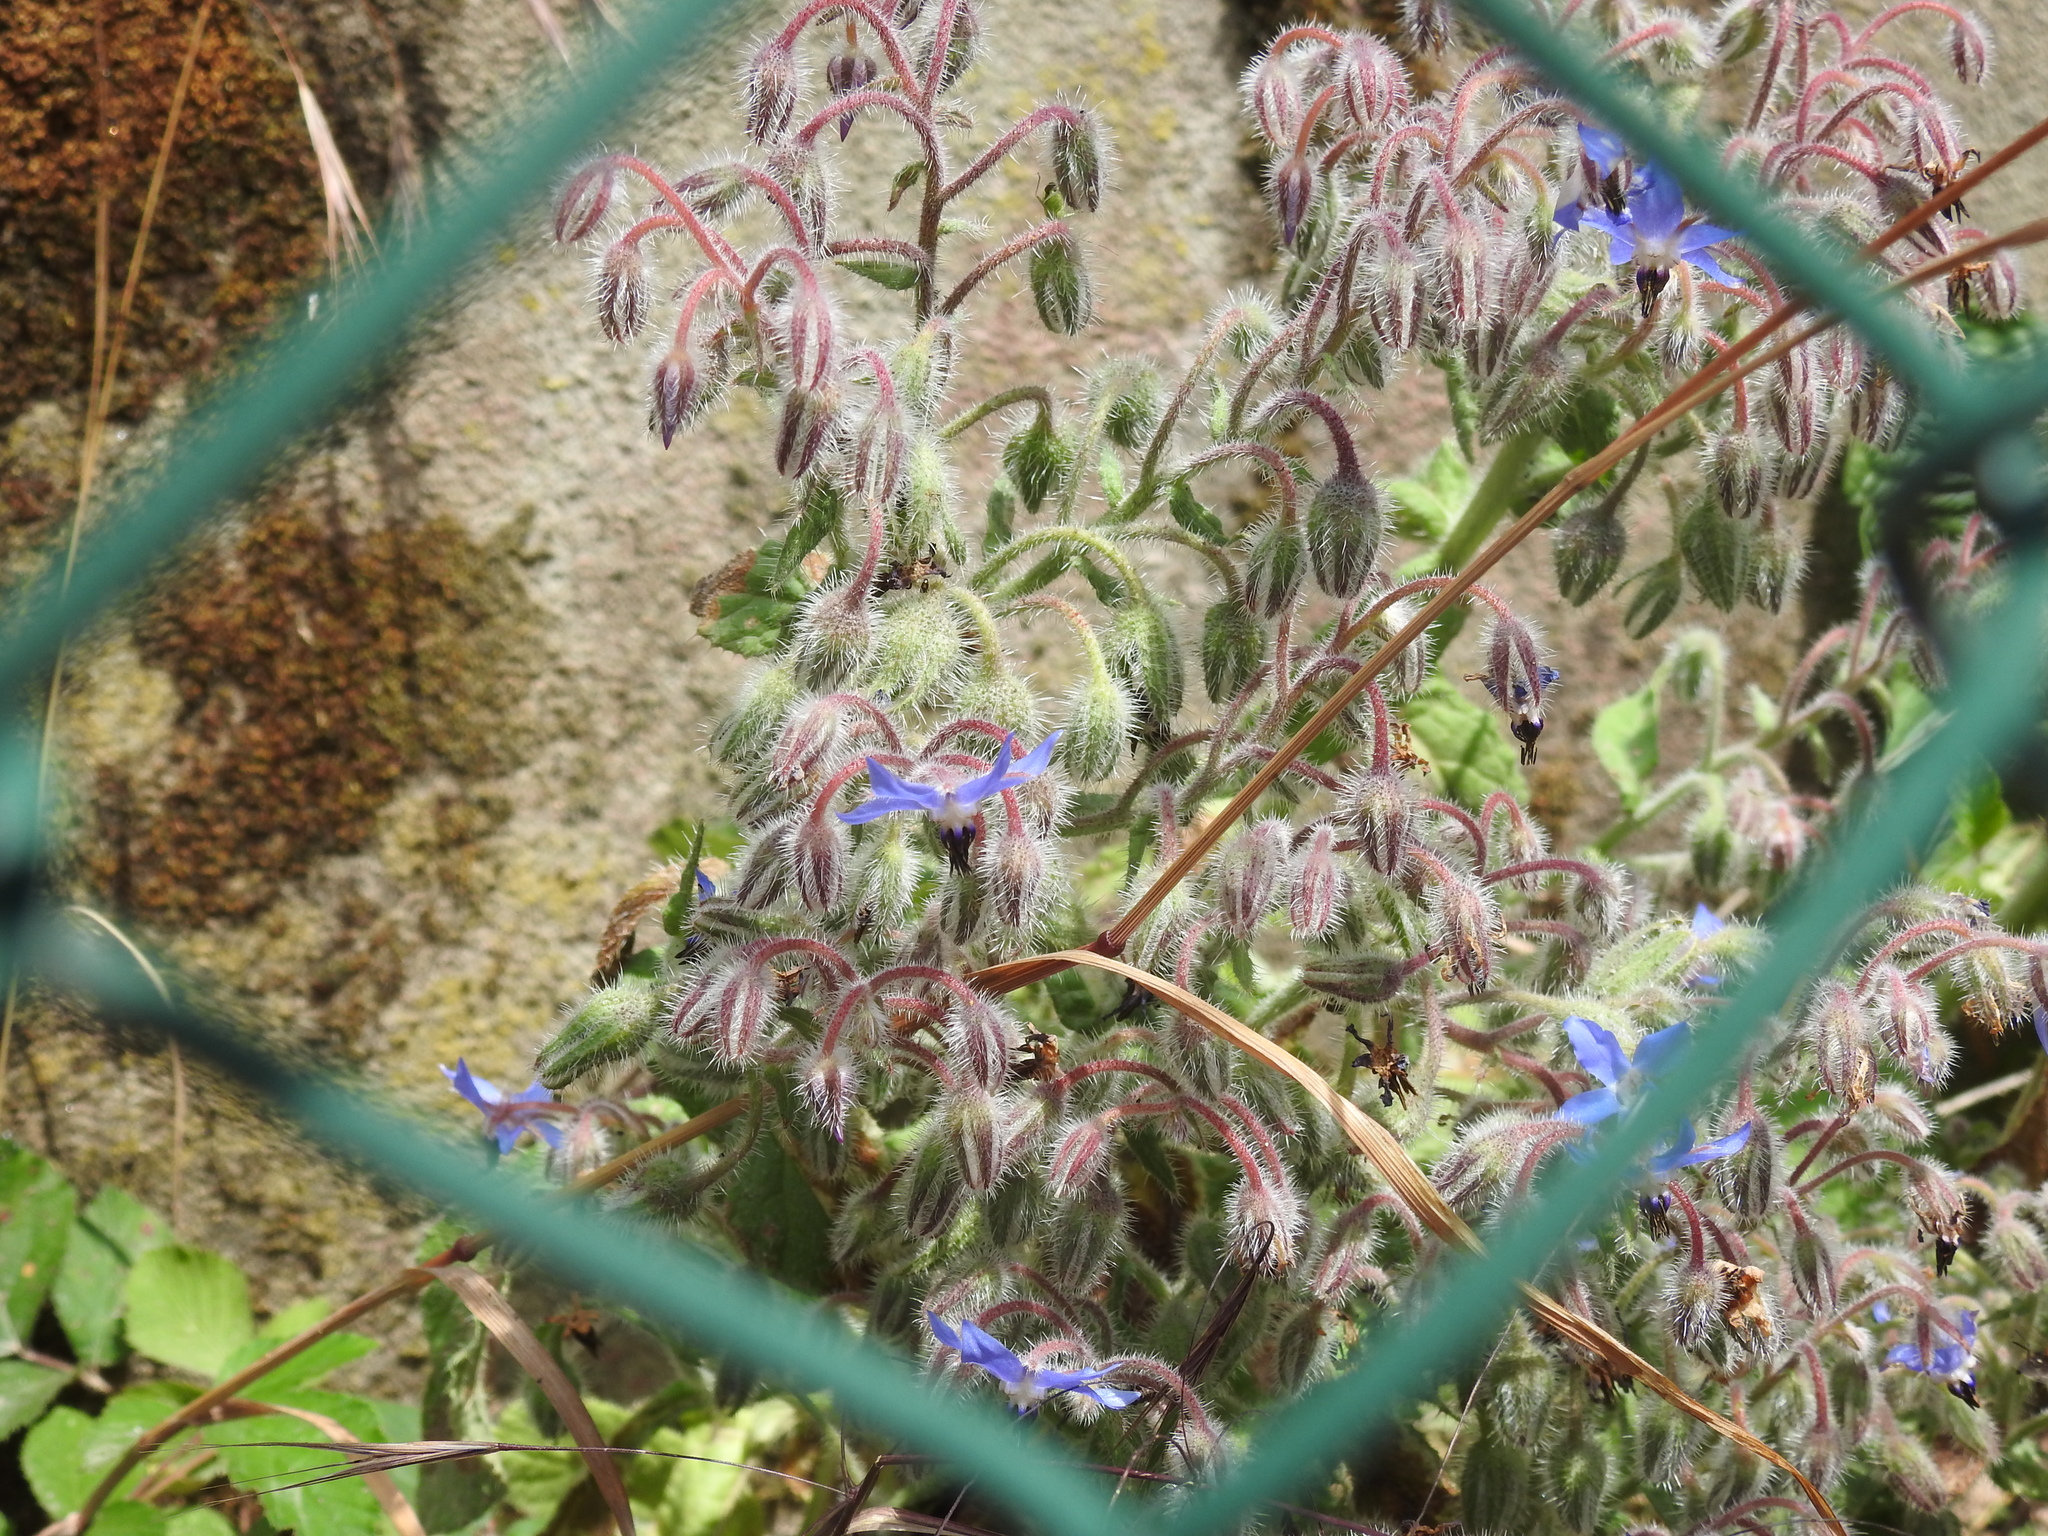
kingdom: Plantae
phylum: Tracheophyta
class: Magnoliopsida
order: Boraginales
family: Boraginaceae
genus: Borago
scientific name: Borago officinalis
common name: Borage
